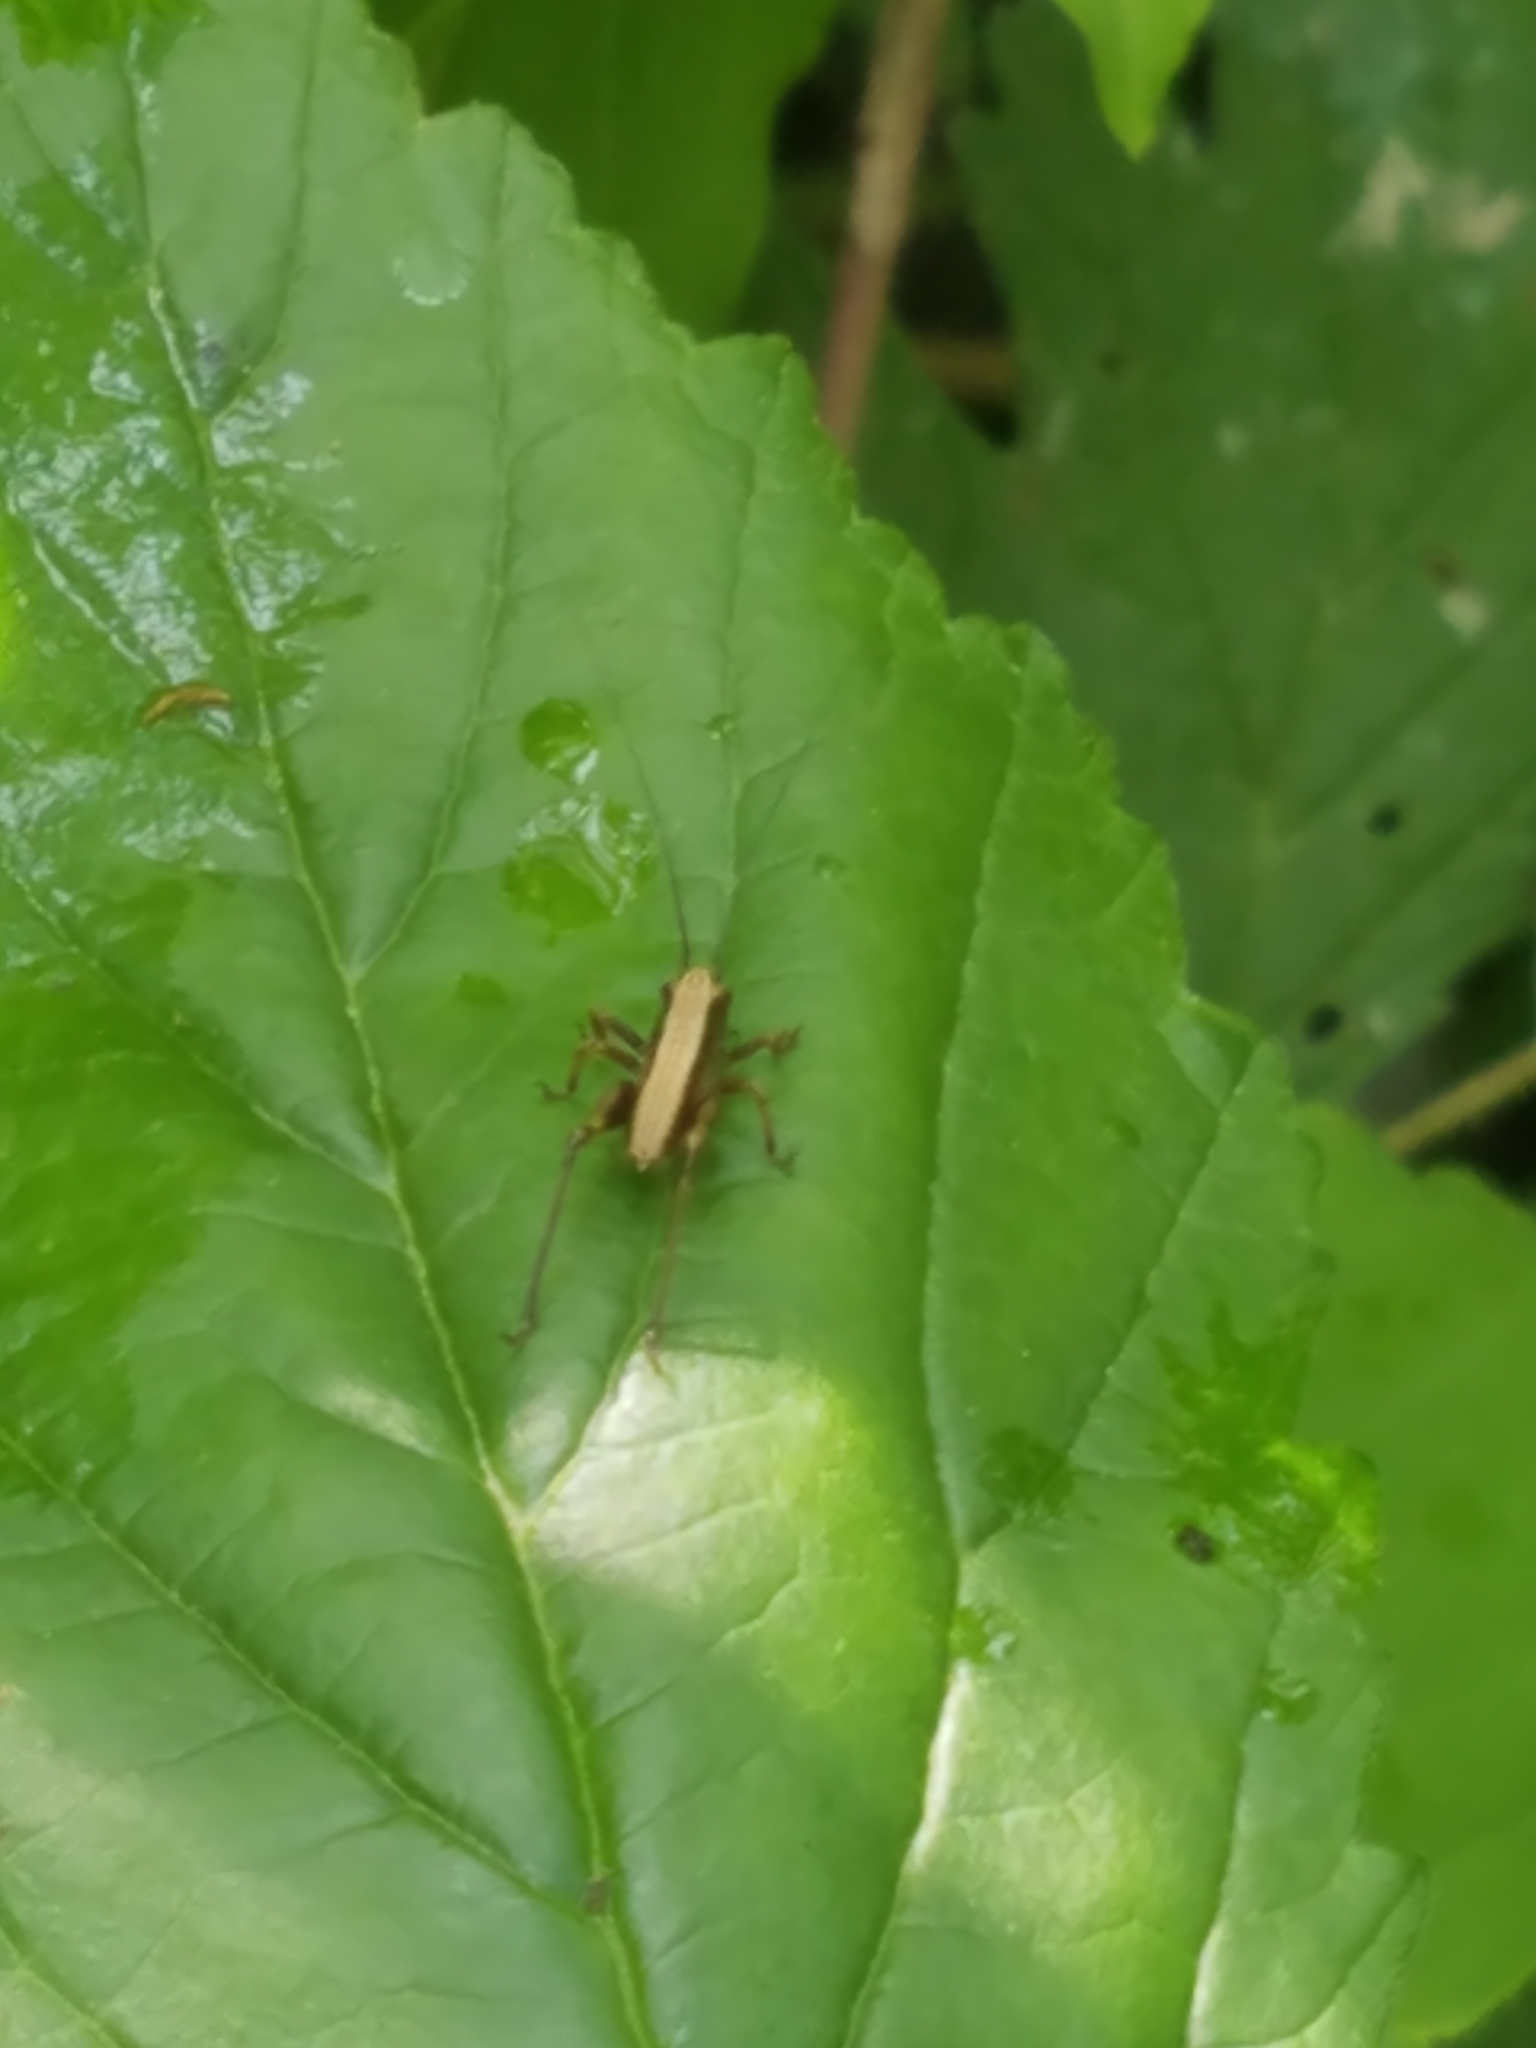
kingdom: Animalia
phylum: Arthropoda
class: Insecta
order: Orthoptera
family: Tettigoniidae
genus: Pholidoptera
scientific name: Pholidoptera griseoaptera
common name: Dark bush-cricket
